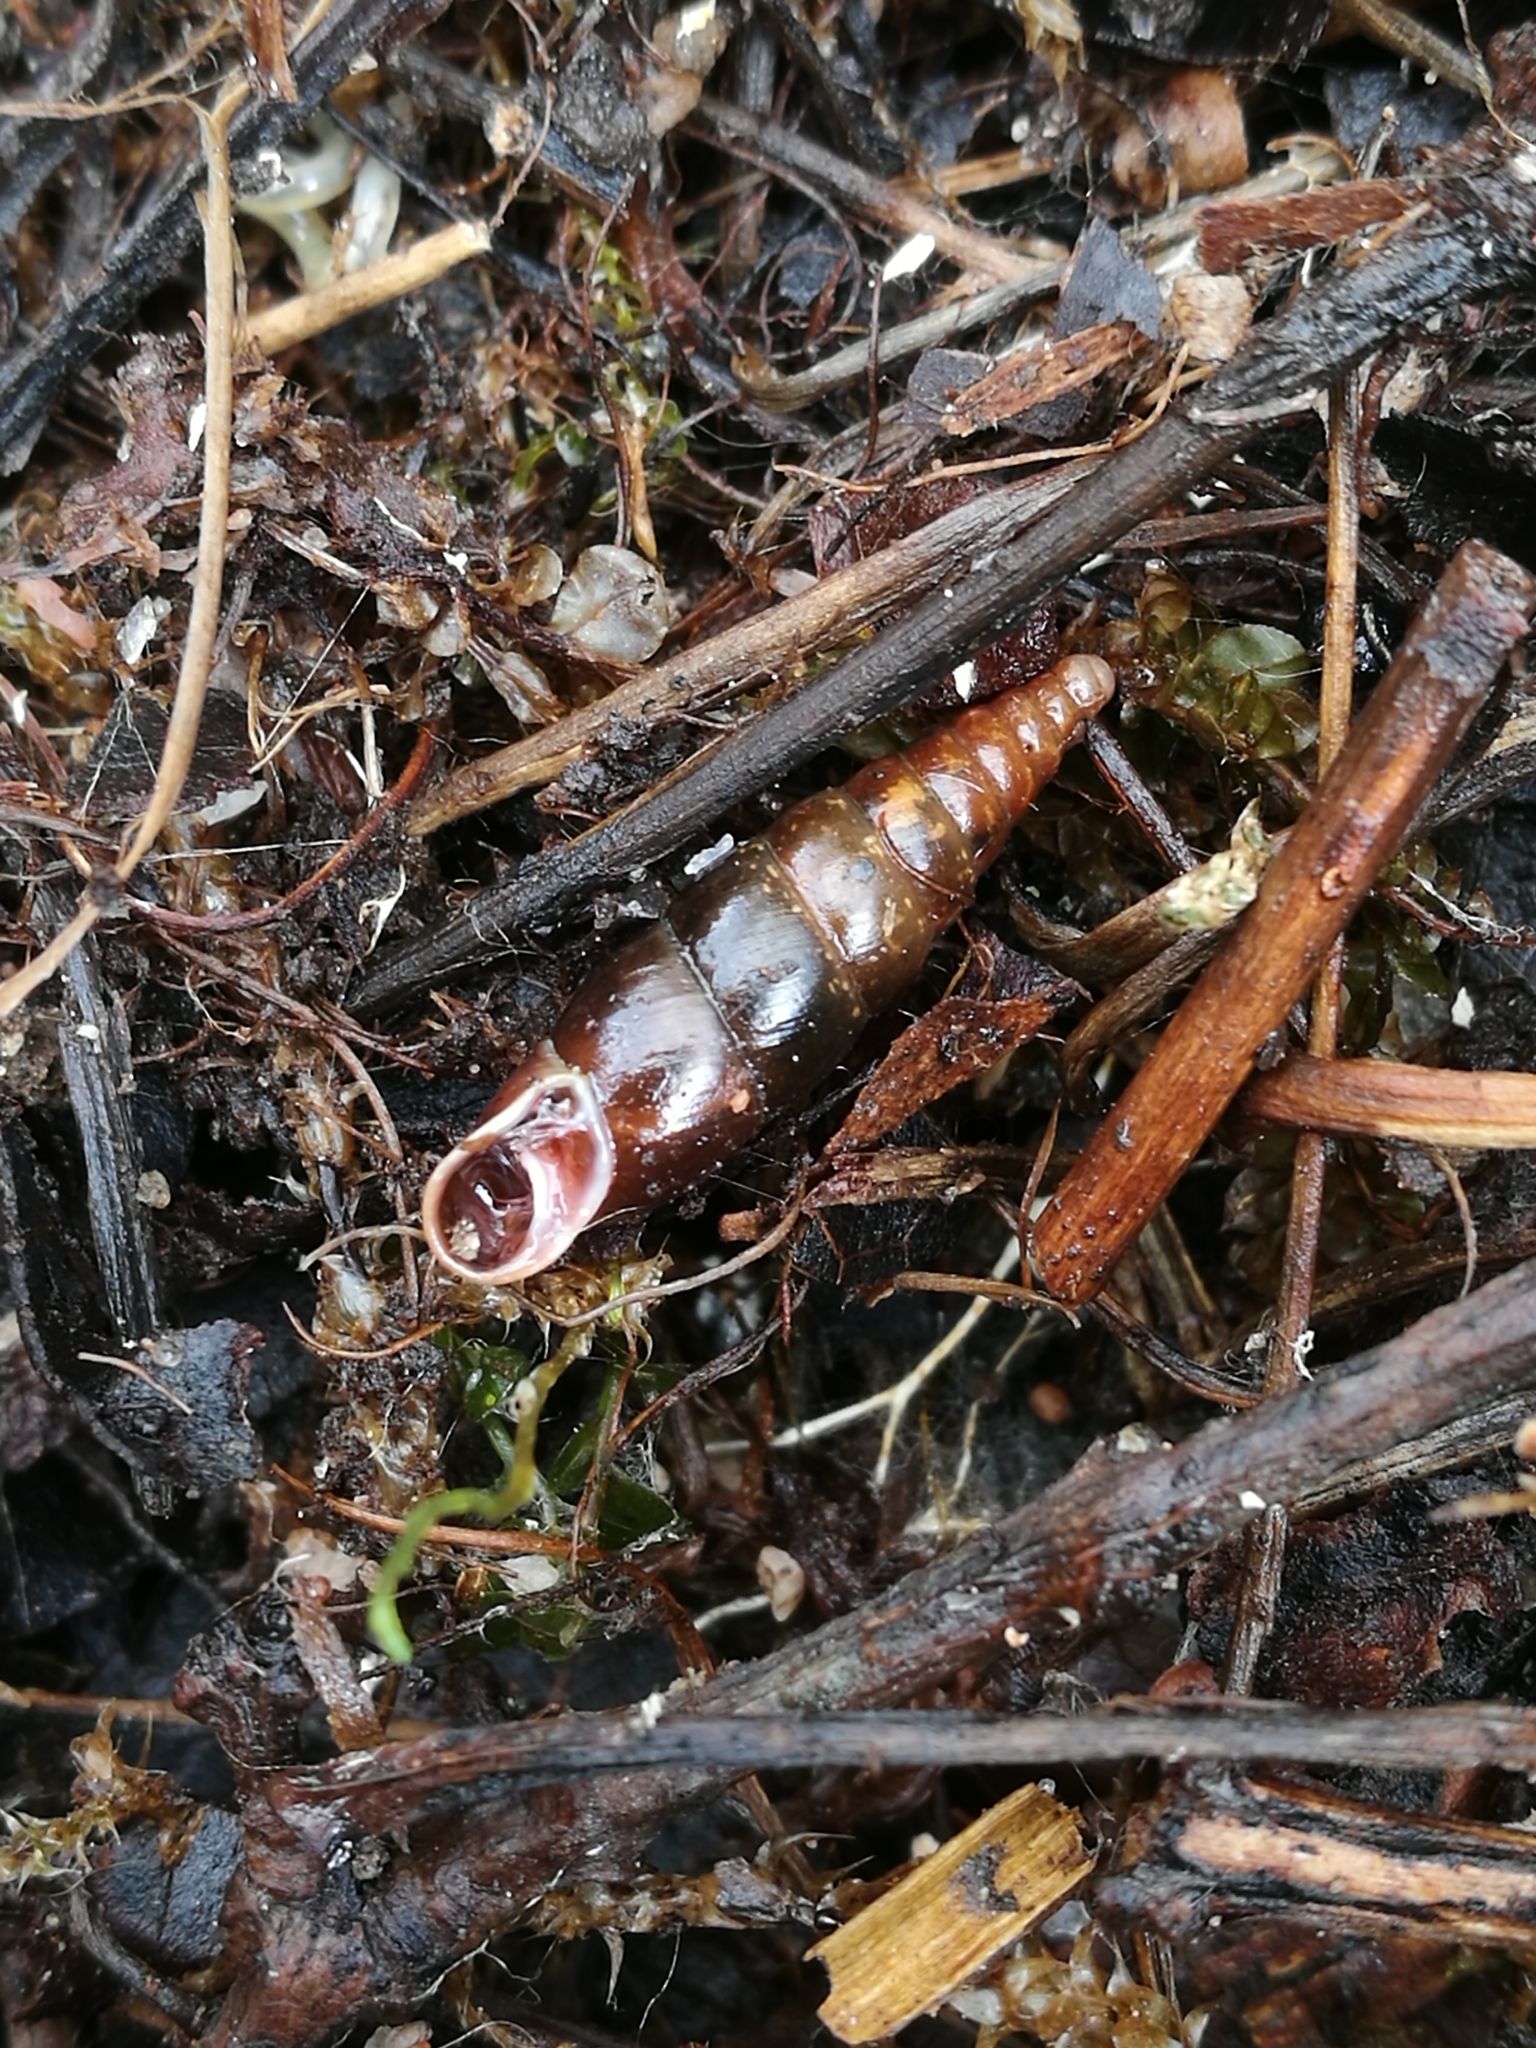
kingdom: Animalia
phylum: Mollusca
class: Gastropoda
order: Stylommatophora
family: Clausiliidae
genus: Cochlodina
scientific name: Cochlodina laminata
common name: Plaited door snail
